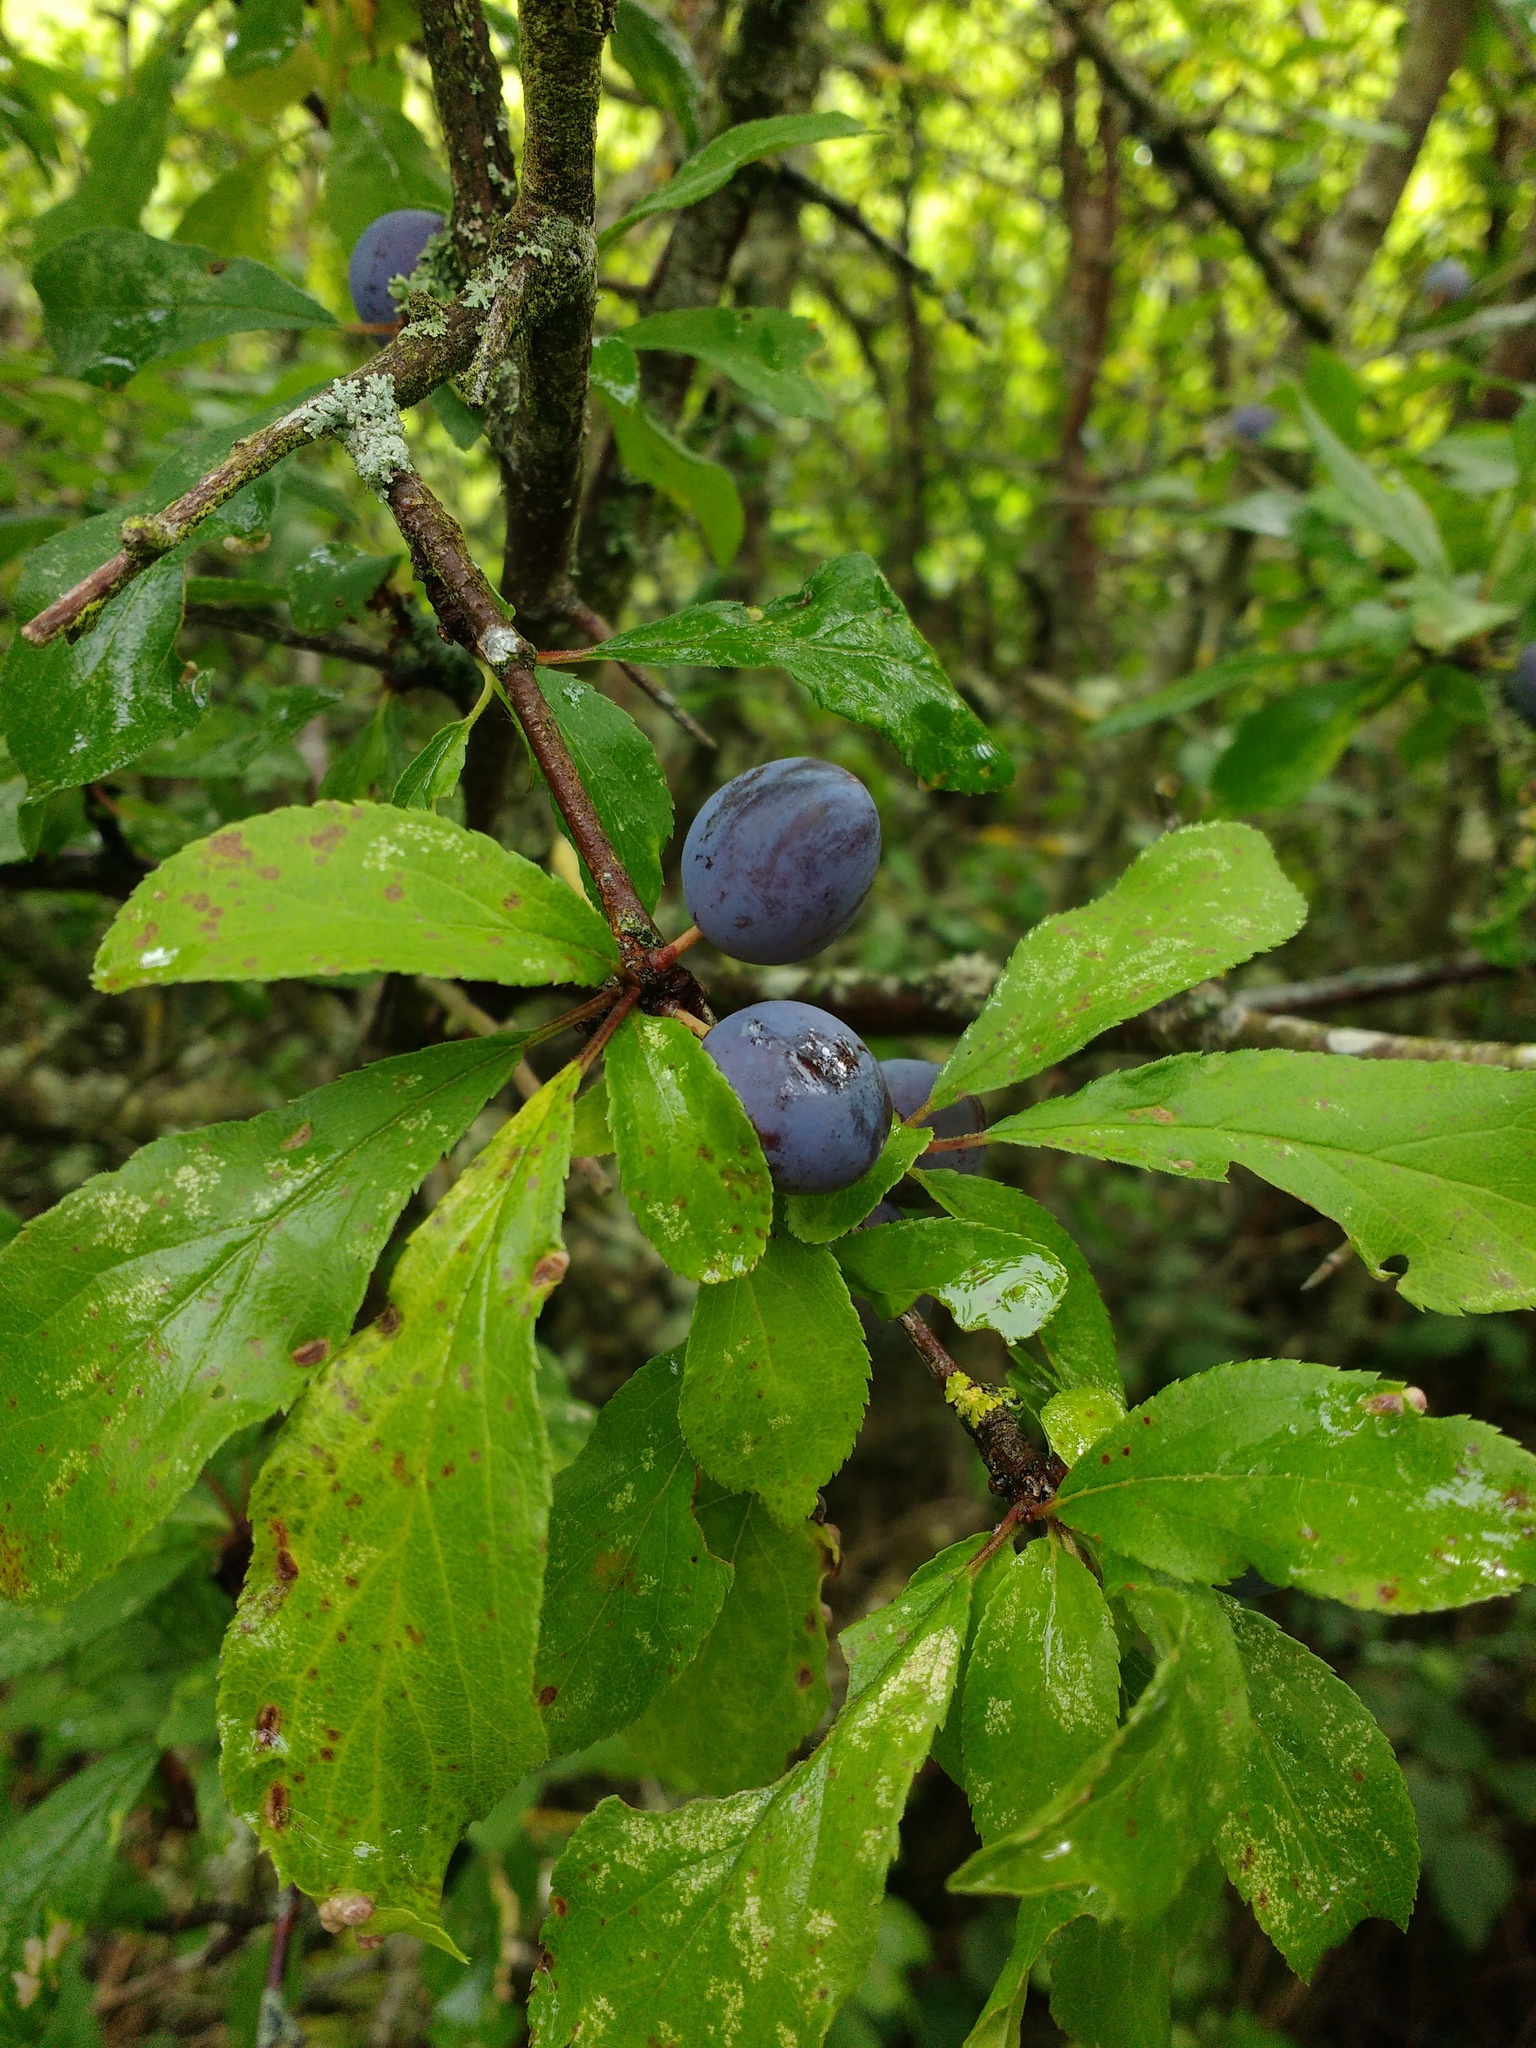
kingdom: Plantae
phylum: Tracheophyta
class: Magnoliopsida
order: Rosales
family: Rosaceae
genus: Prunus
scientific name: Prunus spinosa
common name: Blackthorn
